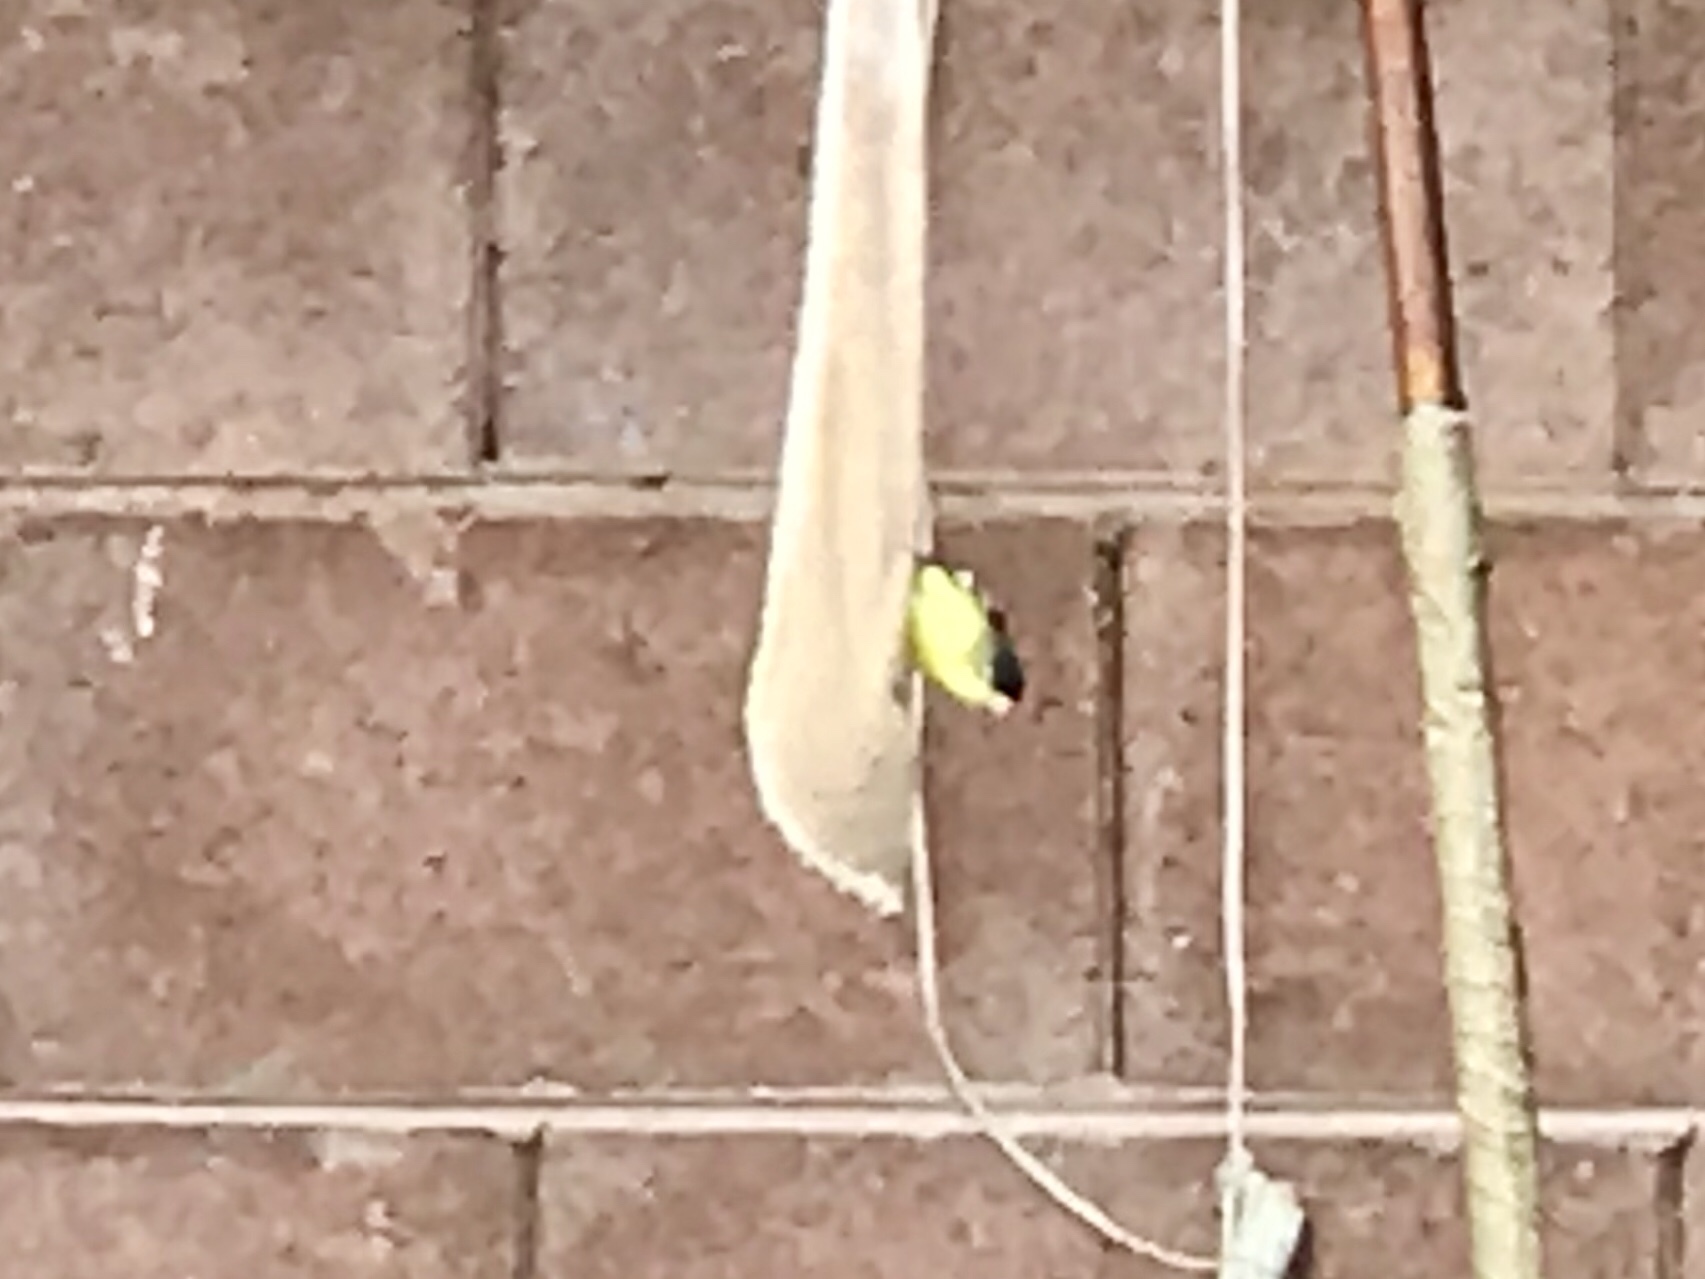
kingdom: Animalia
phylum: Chordata
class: Aves
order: Passeriformes
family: Fringillidae
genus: Spinus
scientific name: Spinus psaltria
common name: Lesser goldfinch
